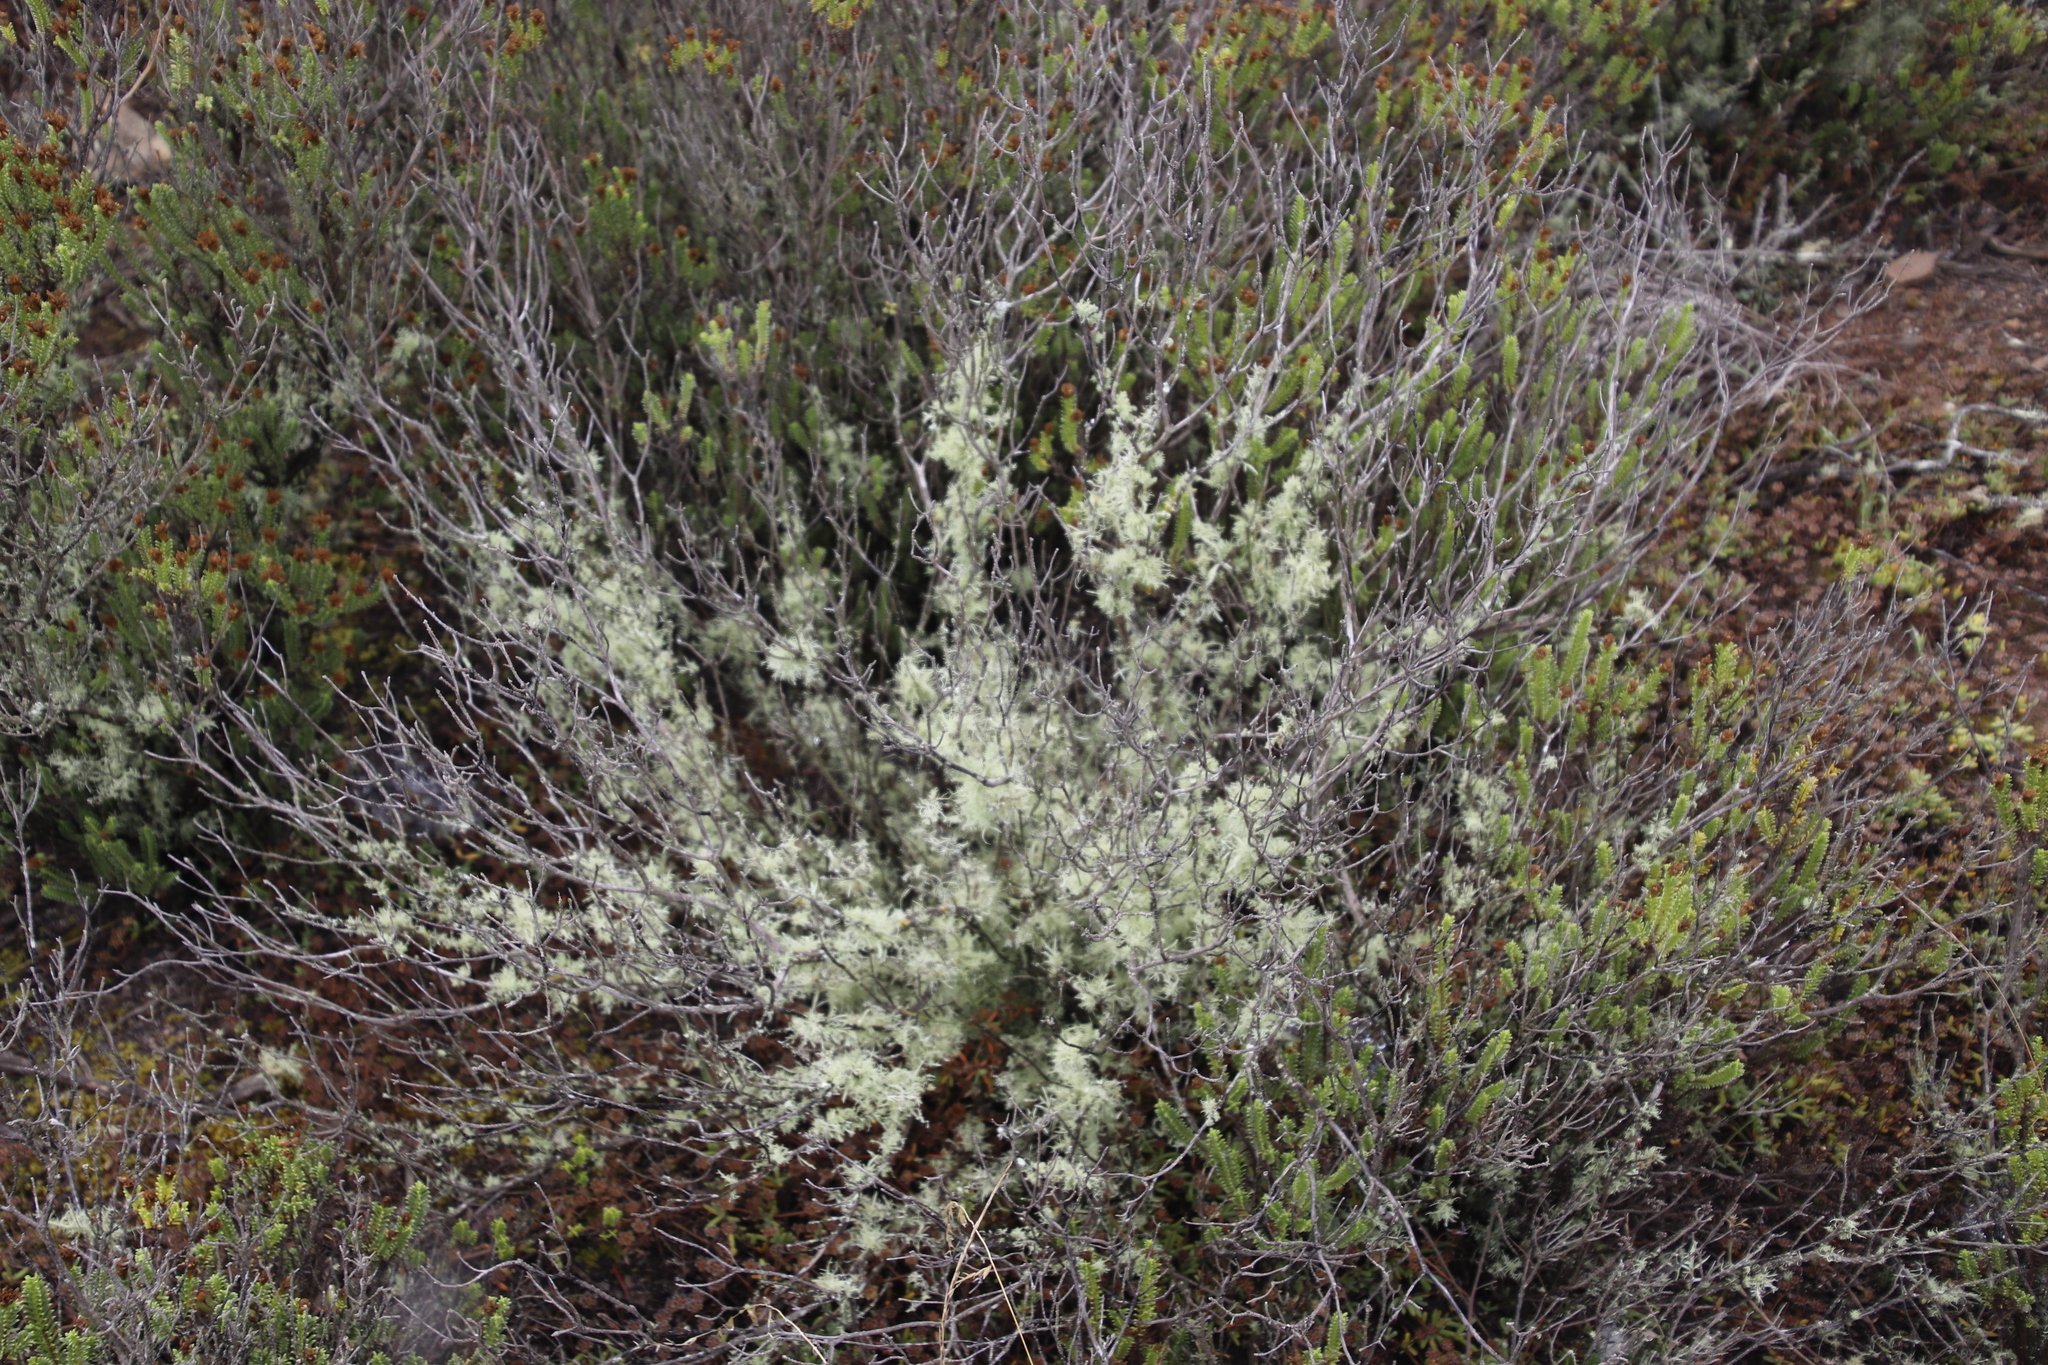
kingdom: Fungi
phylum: Ascomycota
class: Lecanoromycetes
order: Lecanorales
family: Ramalinaceae
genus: Ramalina
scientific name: Ramalina celastri
